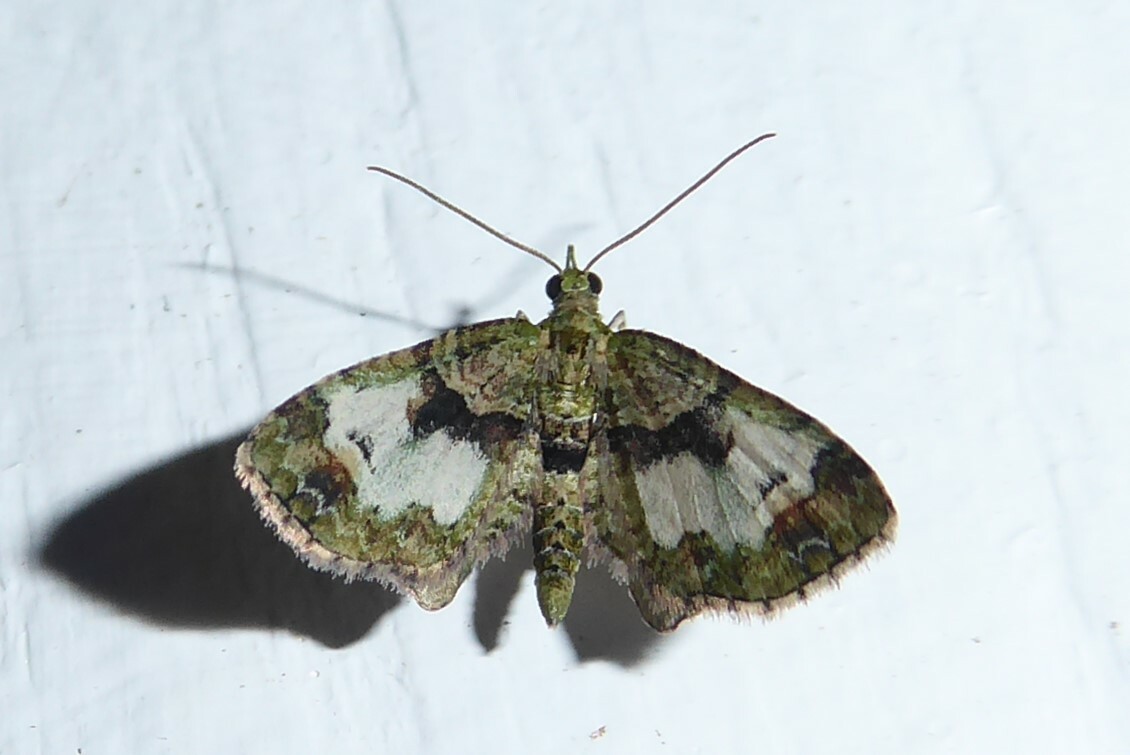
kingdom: Animalia
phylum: Arthropoda
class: Insecta
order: Lepidoptera
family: Geometridae
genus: Idaea
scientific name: Idaea mutanda
